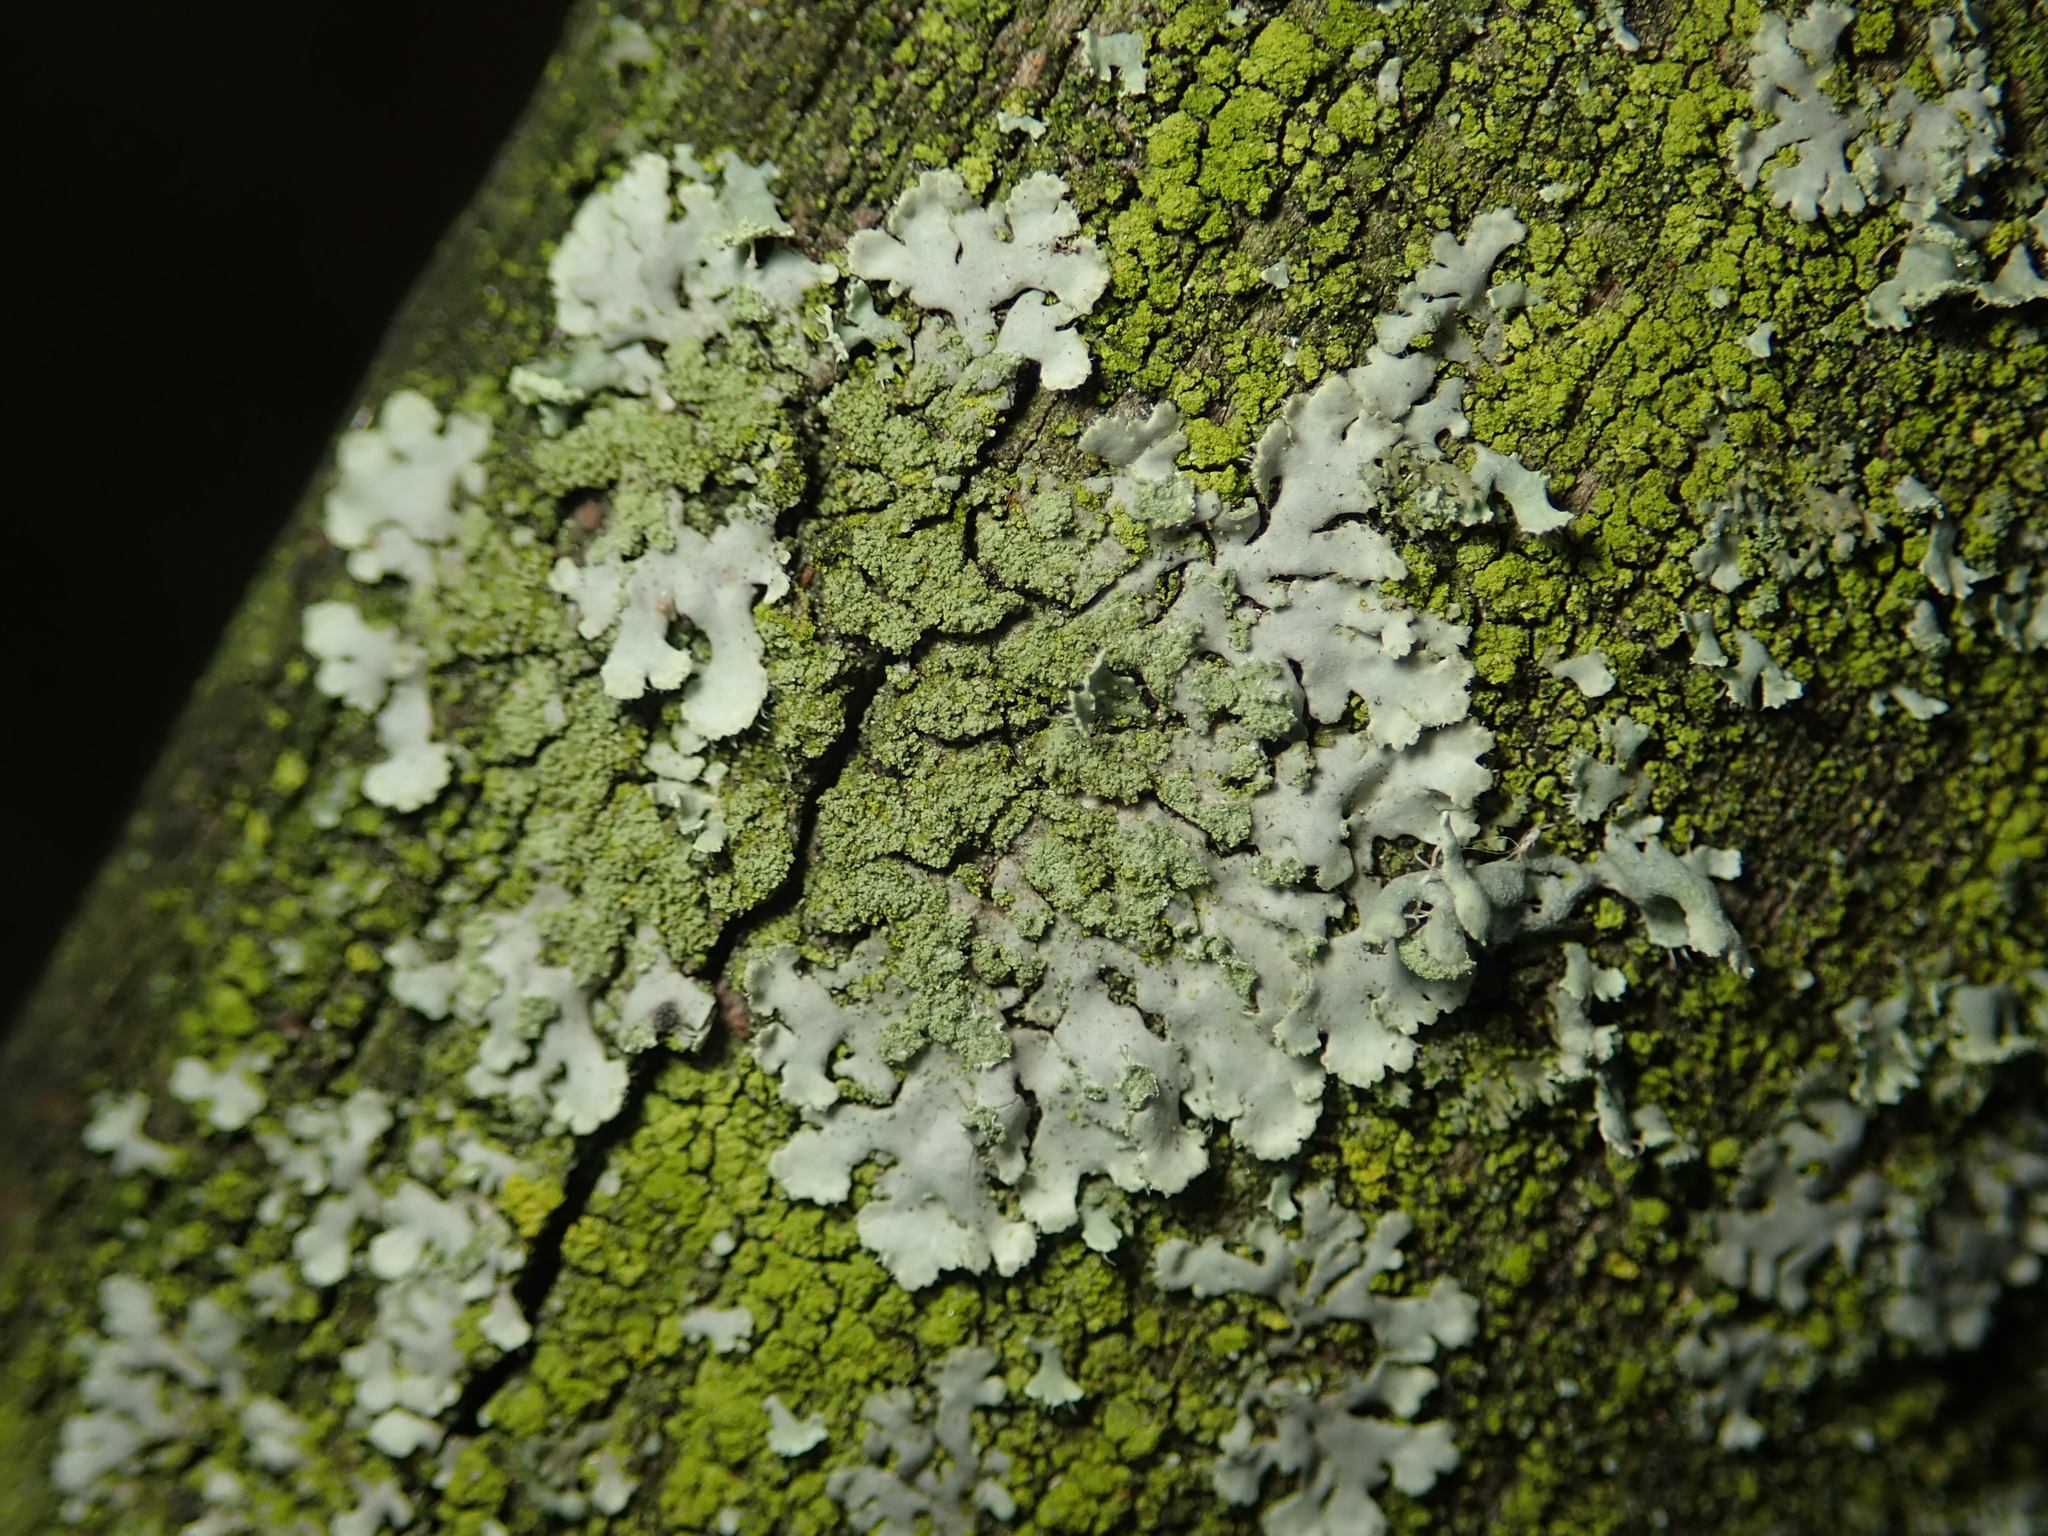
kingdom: Fungi
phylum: Ascomycota
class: Lecanoromycetes
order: Caliciales
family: Physciaceae
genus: Phaeophyscia
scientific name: Phaeophyscia orbicularis
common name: Mealy shadow lichen
